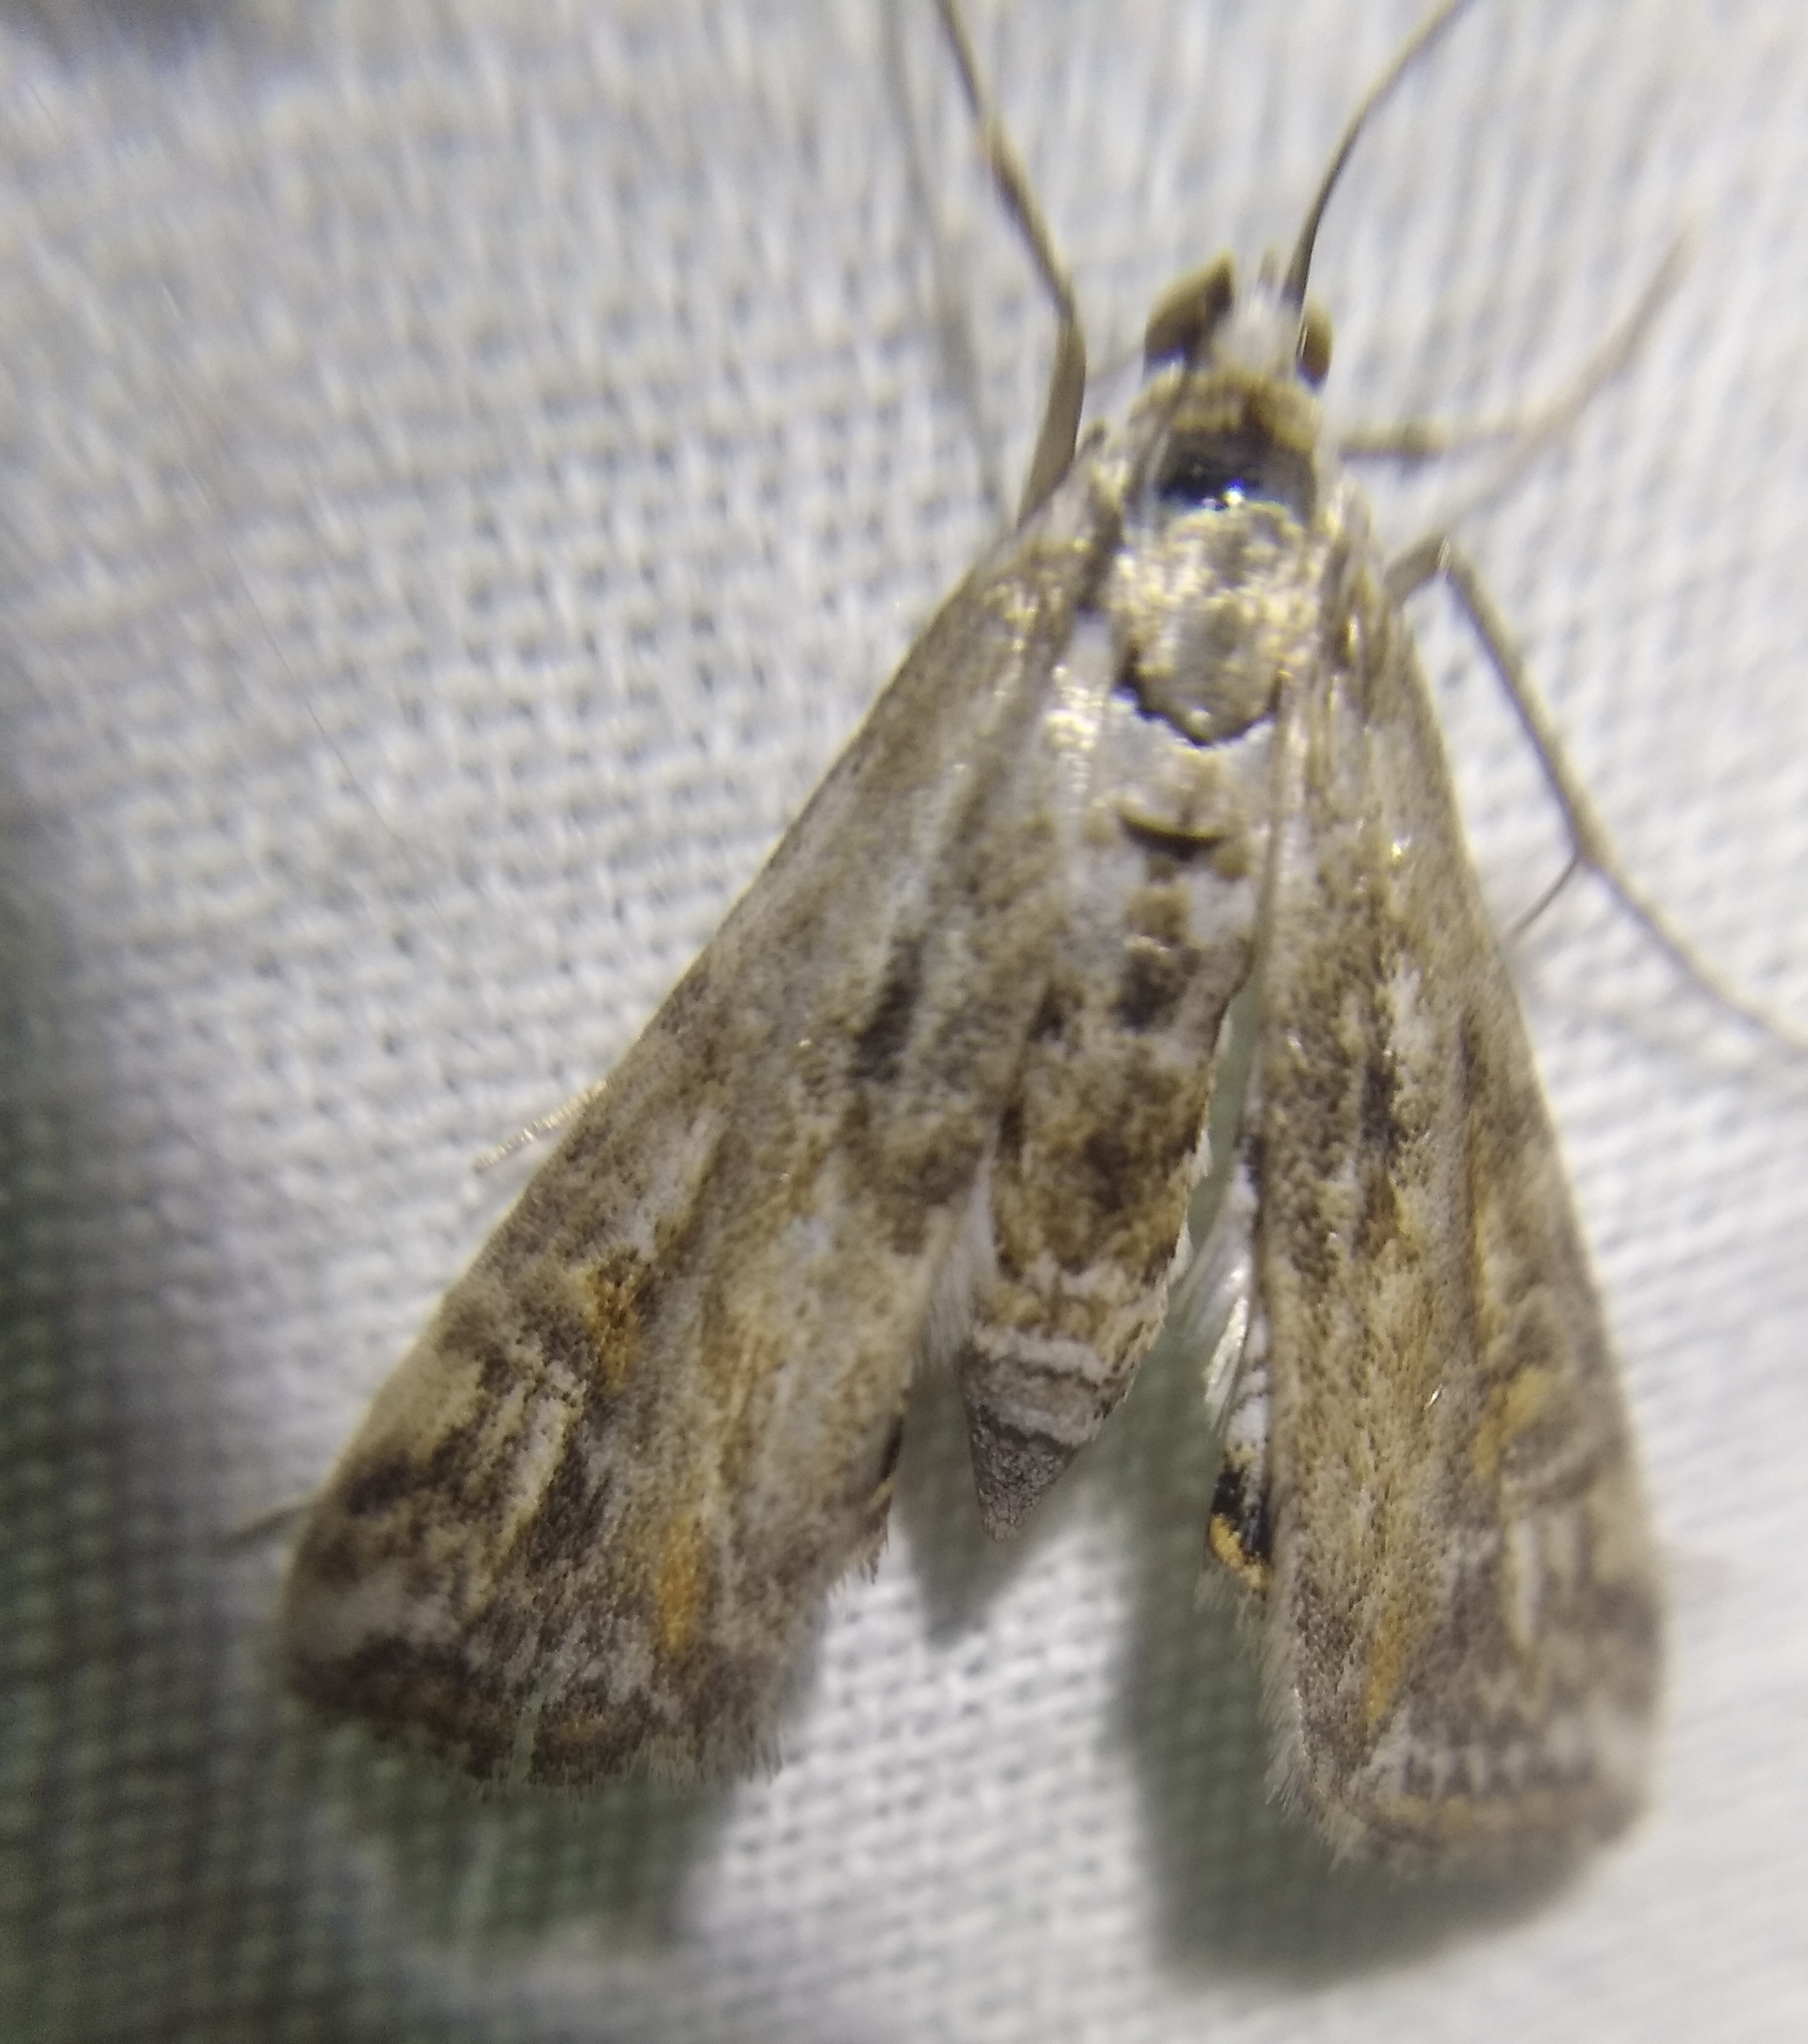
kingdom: Animalia
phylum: Arthropoda
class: Insecta
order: Lepidoptera
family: Crambidae
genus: Cataclysta
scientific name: Cataclysta lemnata
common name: Small china-mark
